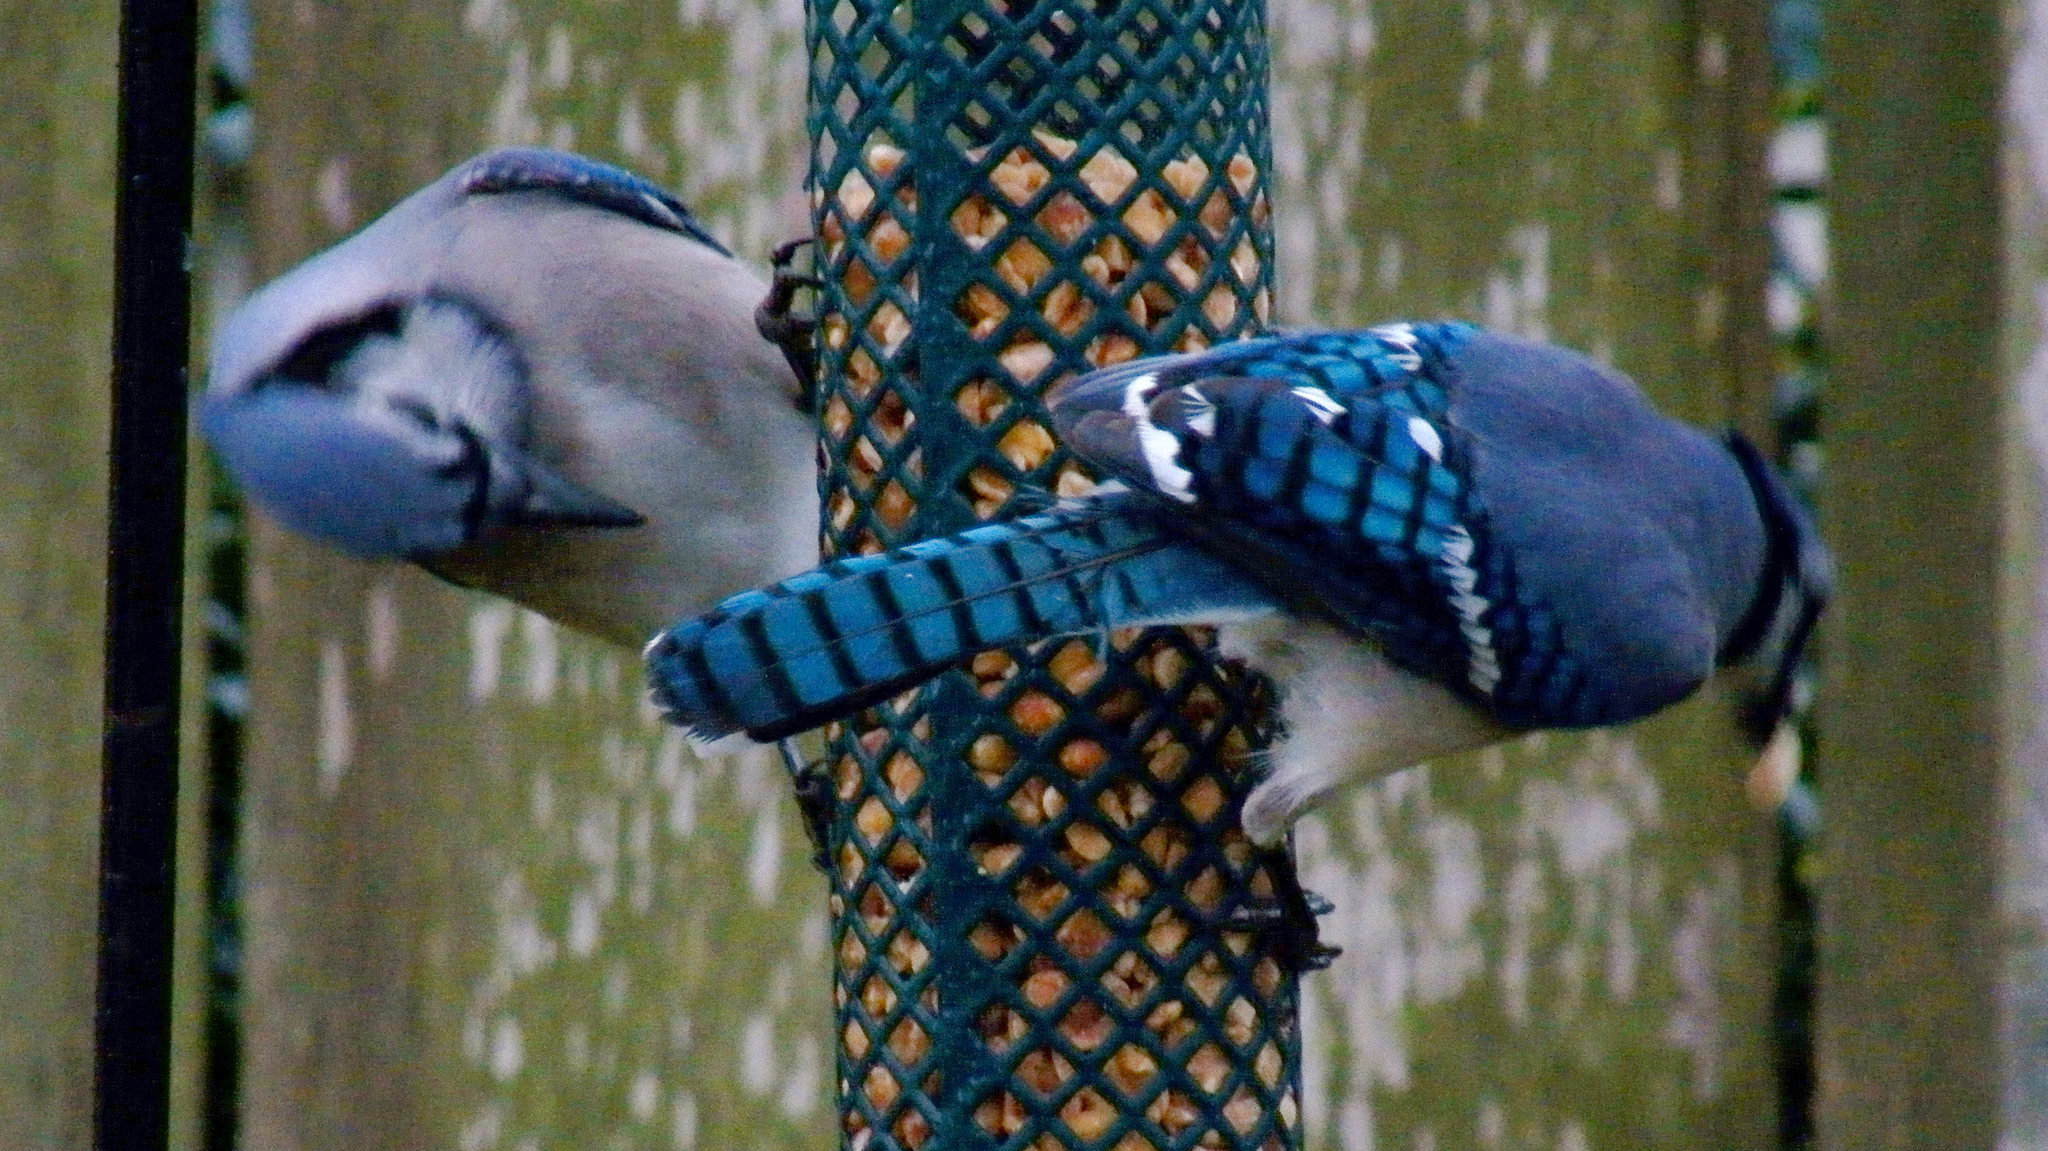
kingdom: Animalia
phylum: Chordata
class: Aves
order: Passeriformes
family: Corvidae
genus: Cyanocitta
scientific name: Cyanocitta cristata
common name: Blue jay
